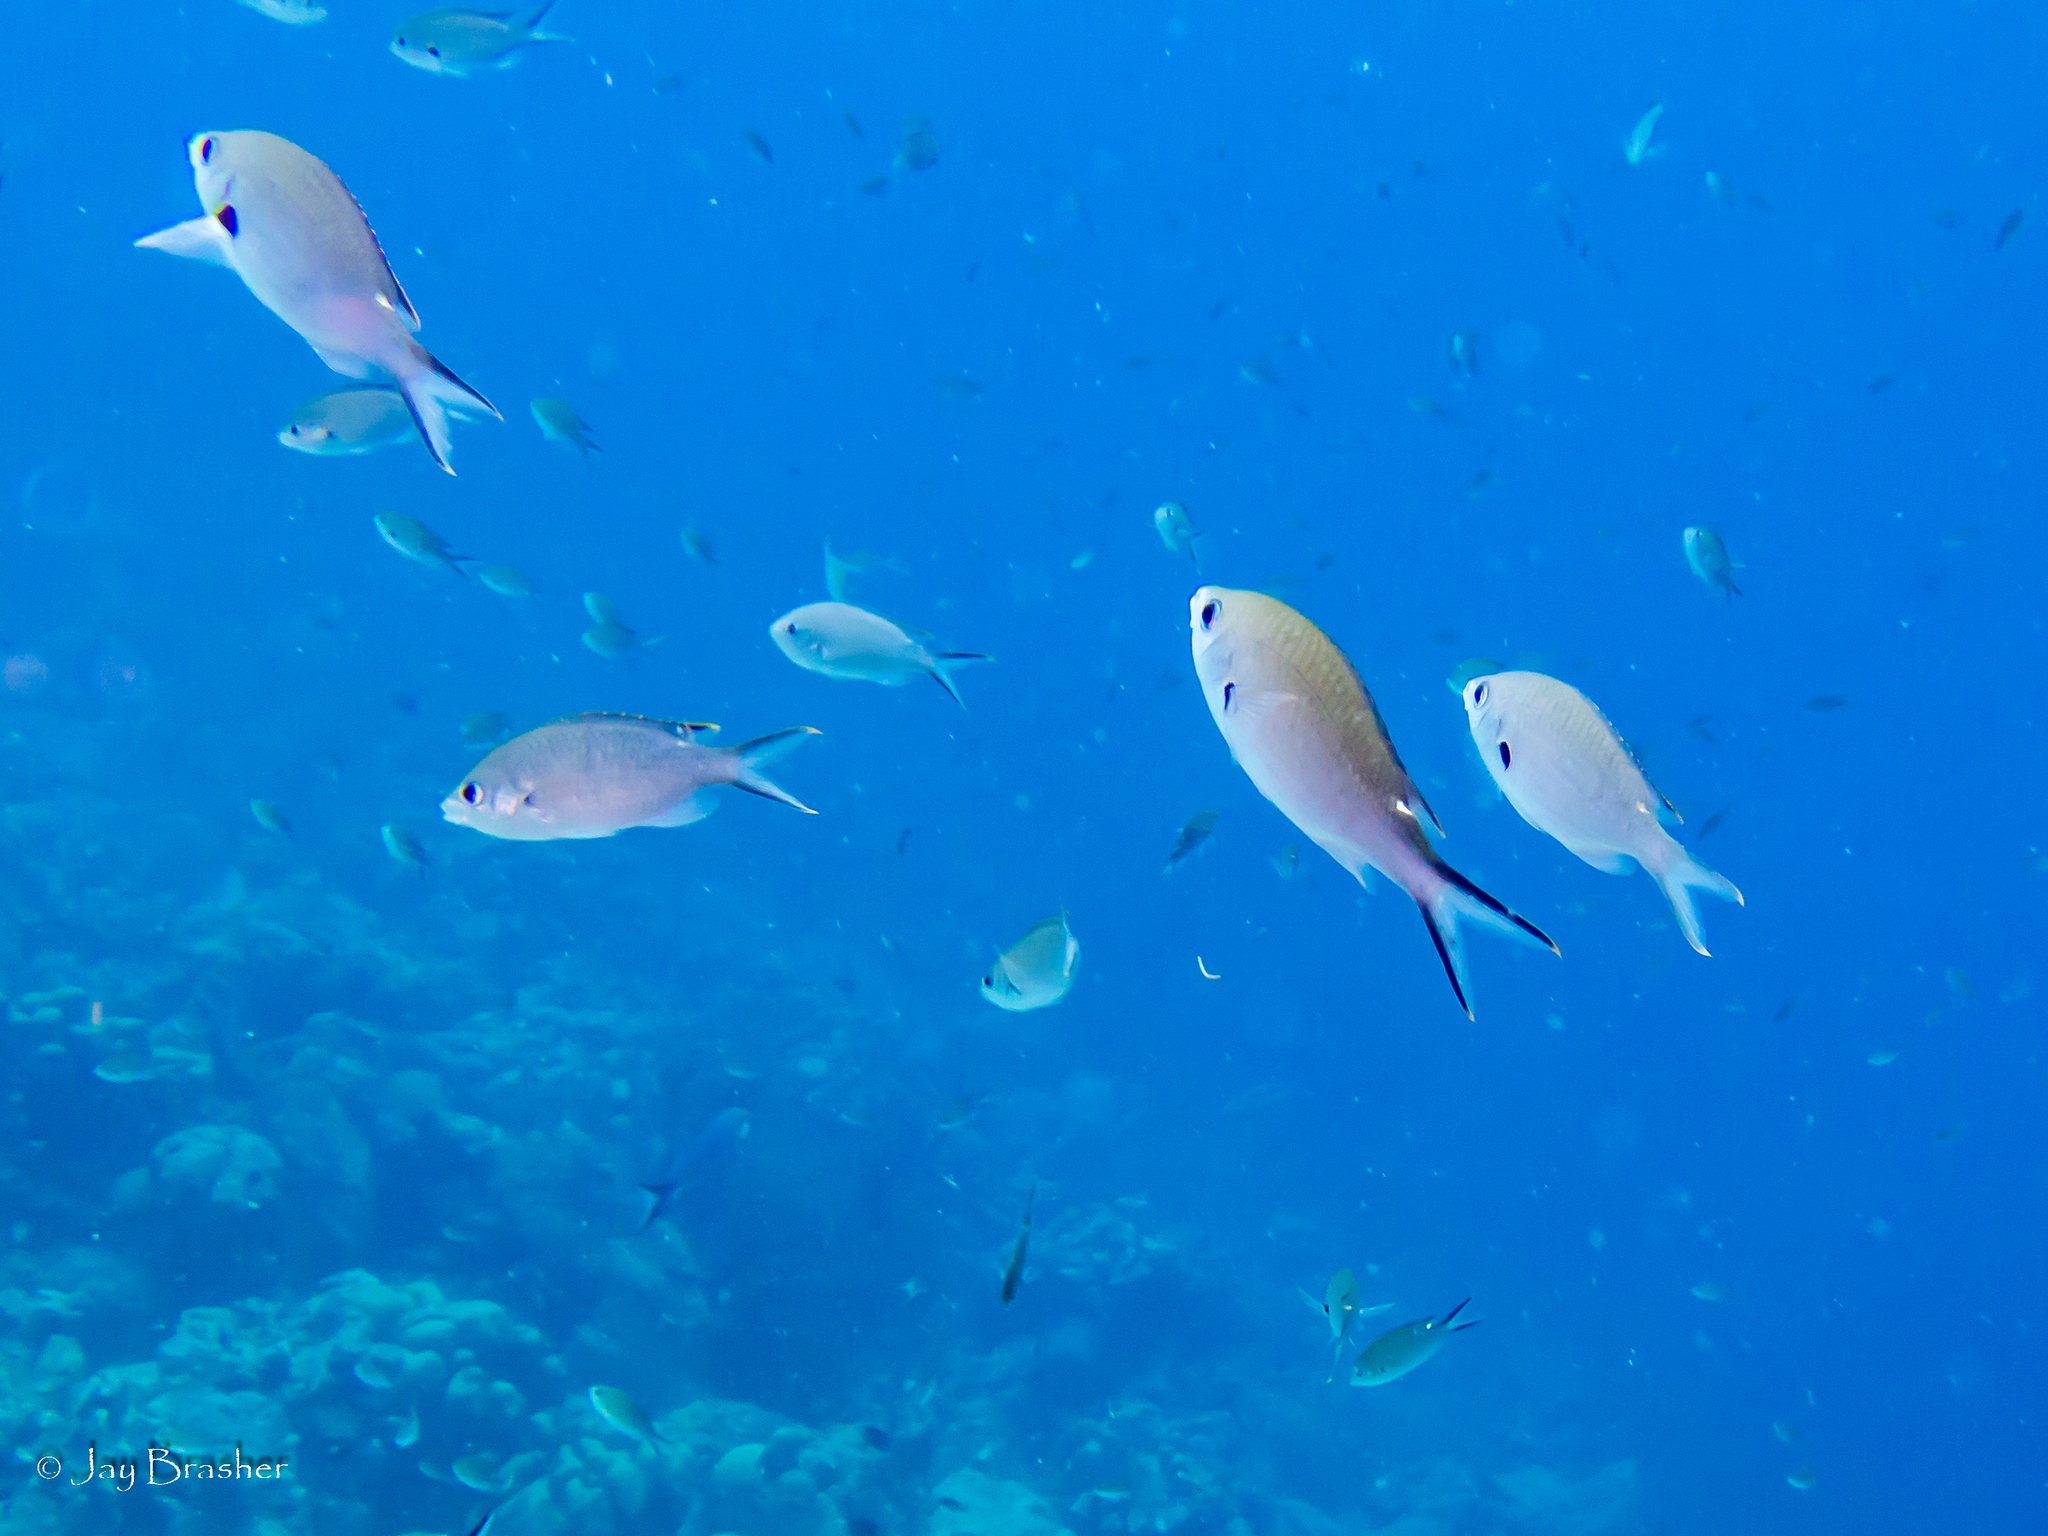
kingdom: Animalia
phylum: Chordata
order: Perciformes
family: Pomacentridae
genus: Chromis
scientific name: Chromis multilineata
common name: Brown chromis
